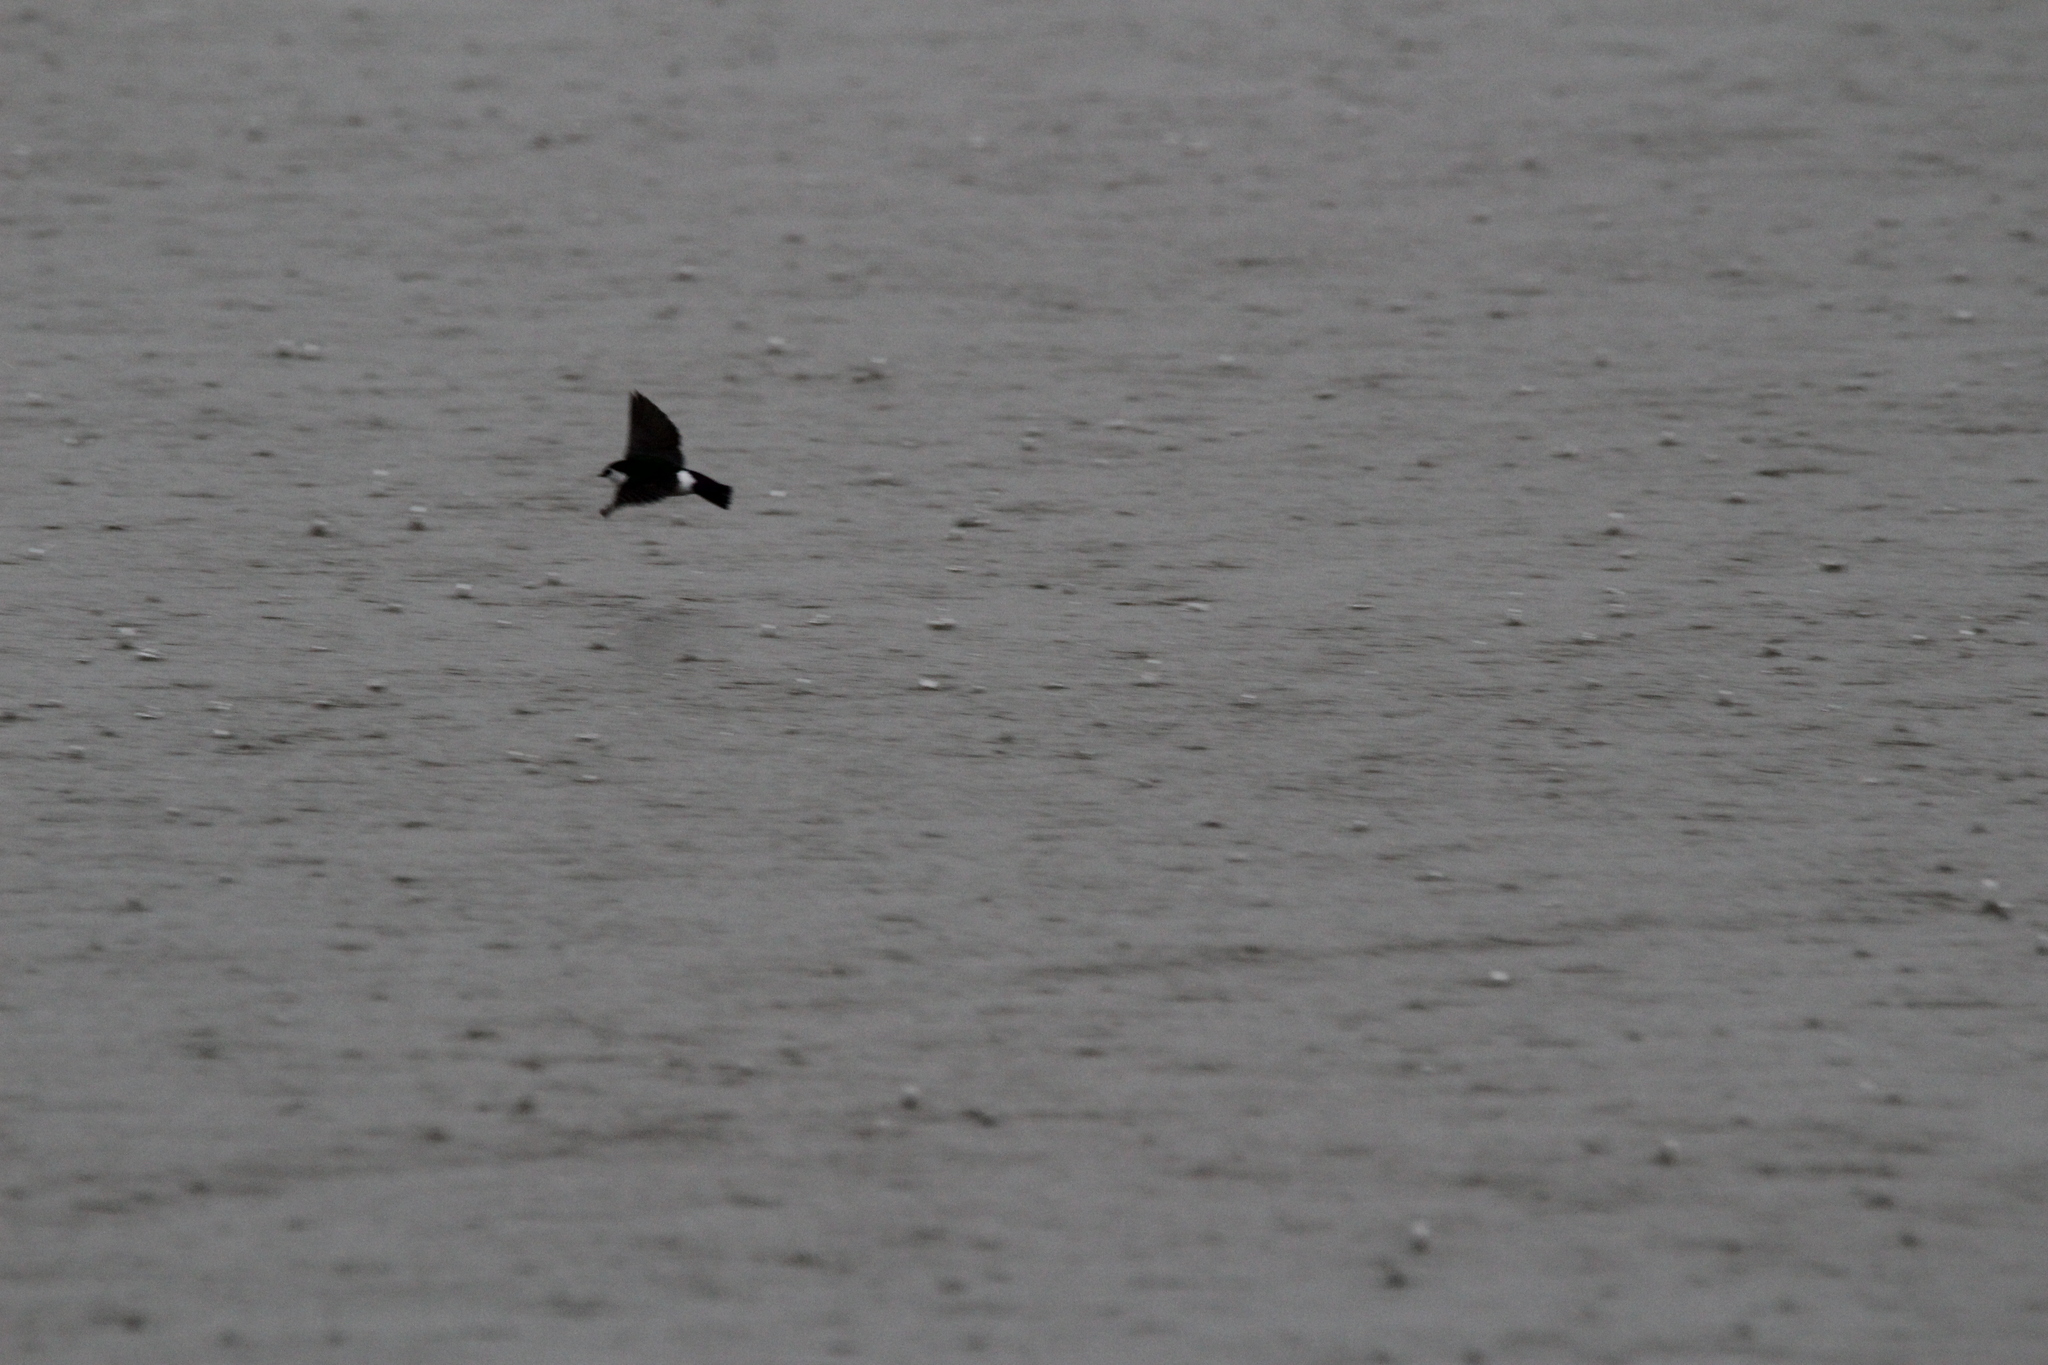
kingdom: Animalia
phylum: Chordata
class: Aves
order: Passeriformes
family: Hirundinidae
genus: Tachycineta
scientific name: Tachycineta thalassina
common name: Violet-green swallow
